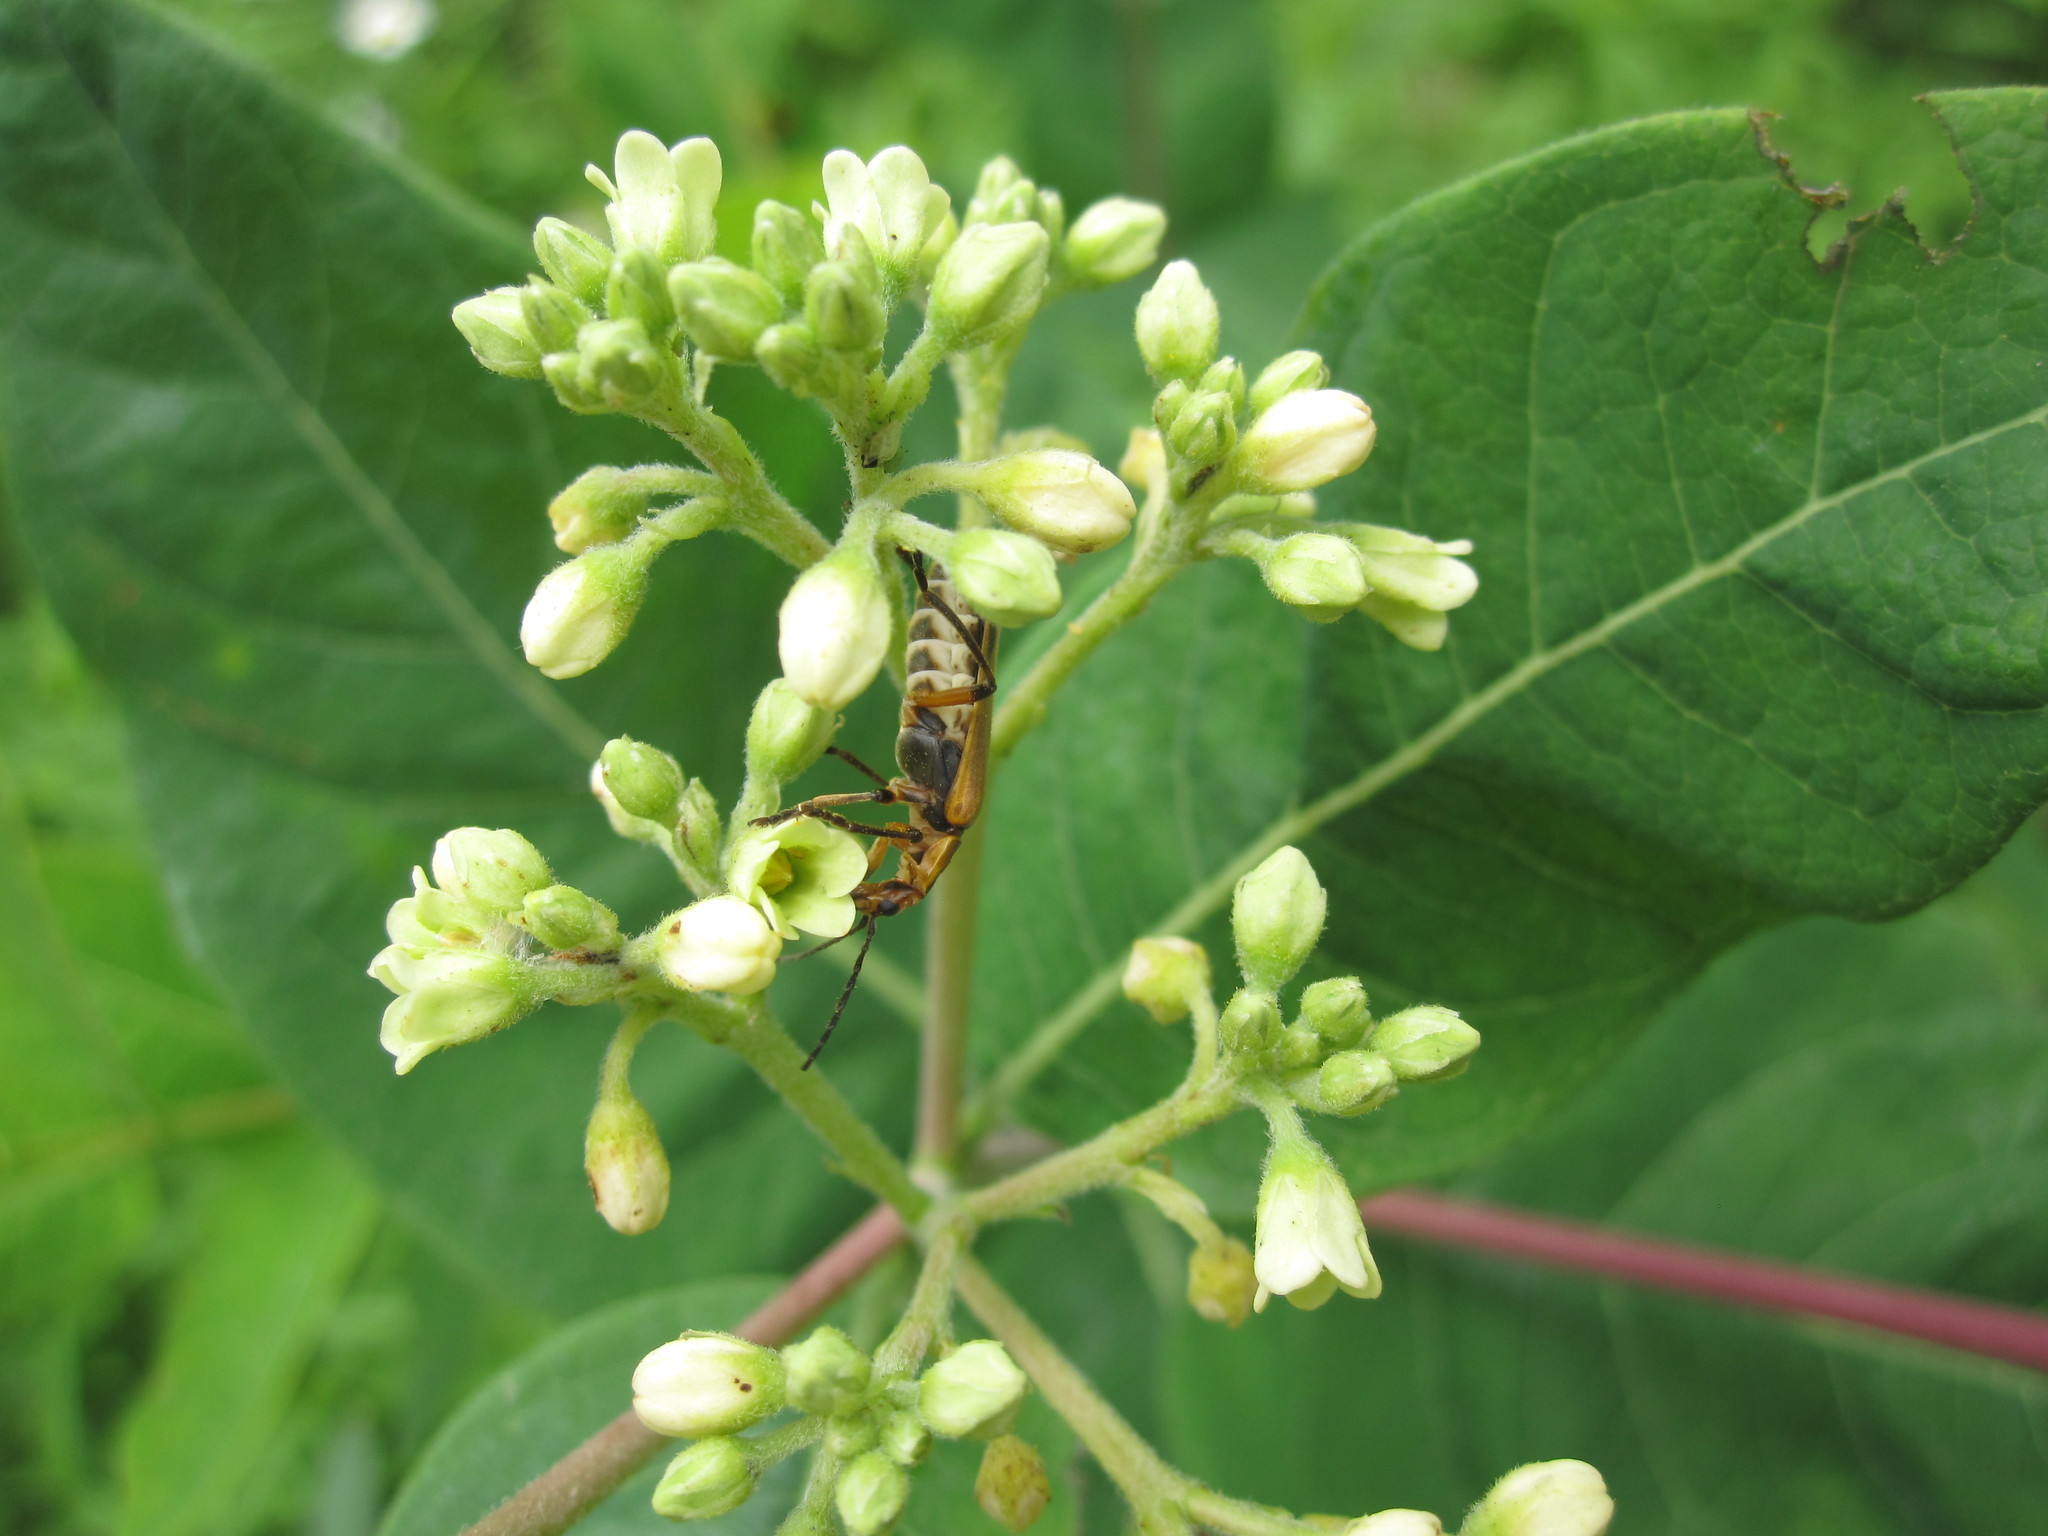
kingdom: Animalia
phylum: Arthropoda
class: Insecta
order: Coleoptera
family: Cantharidae
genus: Chauliognathus
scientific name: Chauliognathus marginatus
